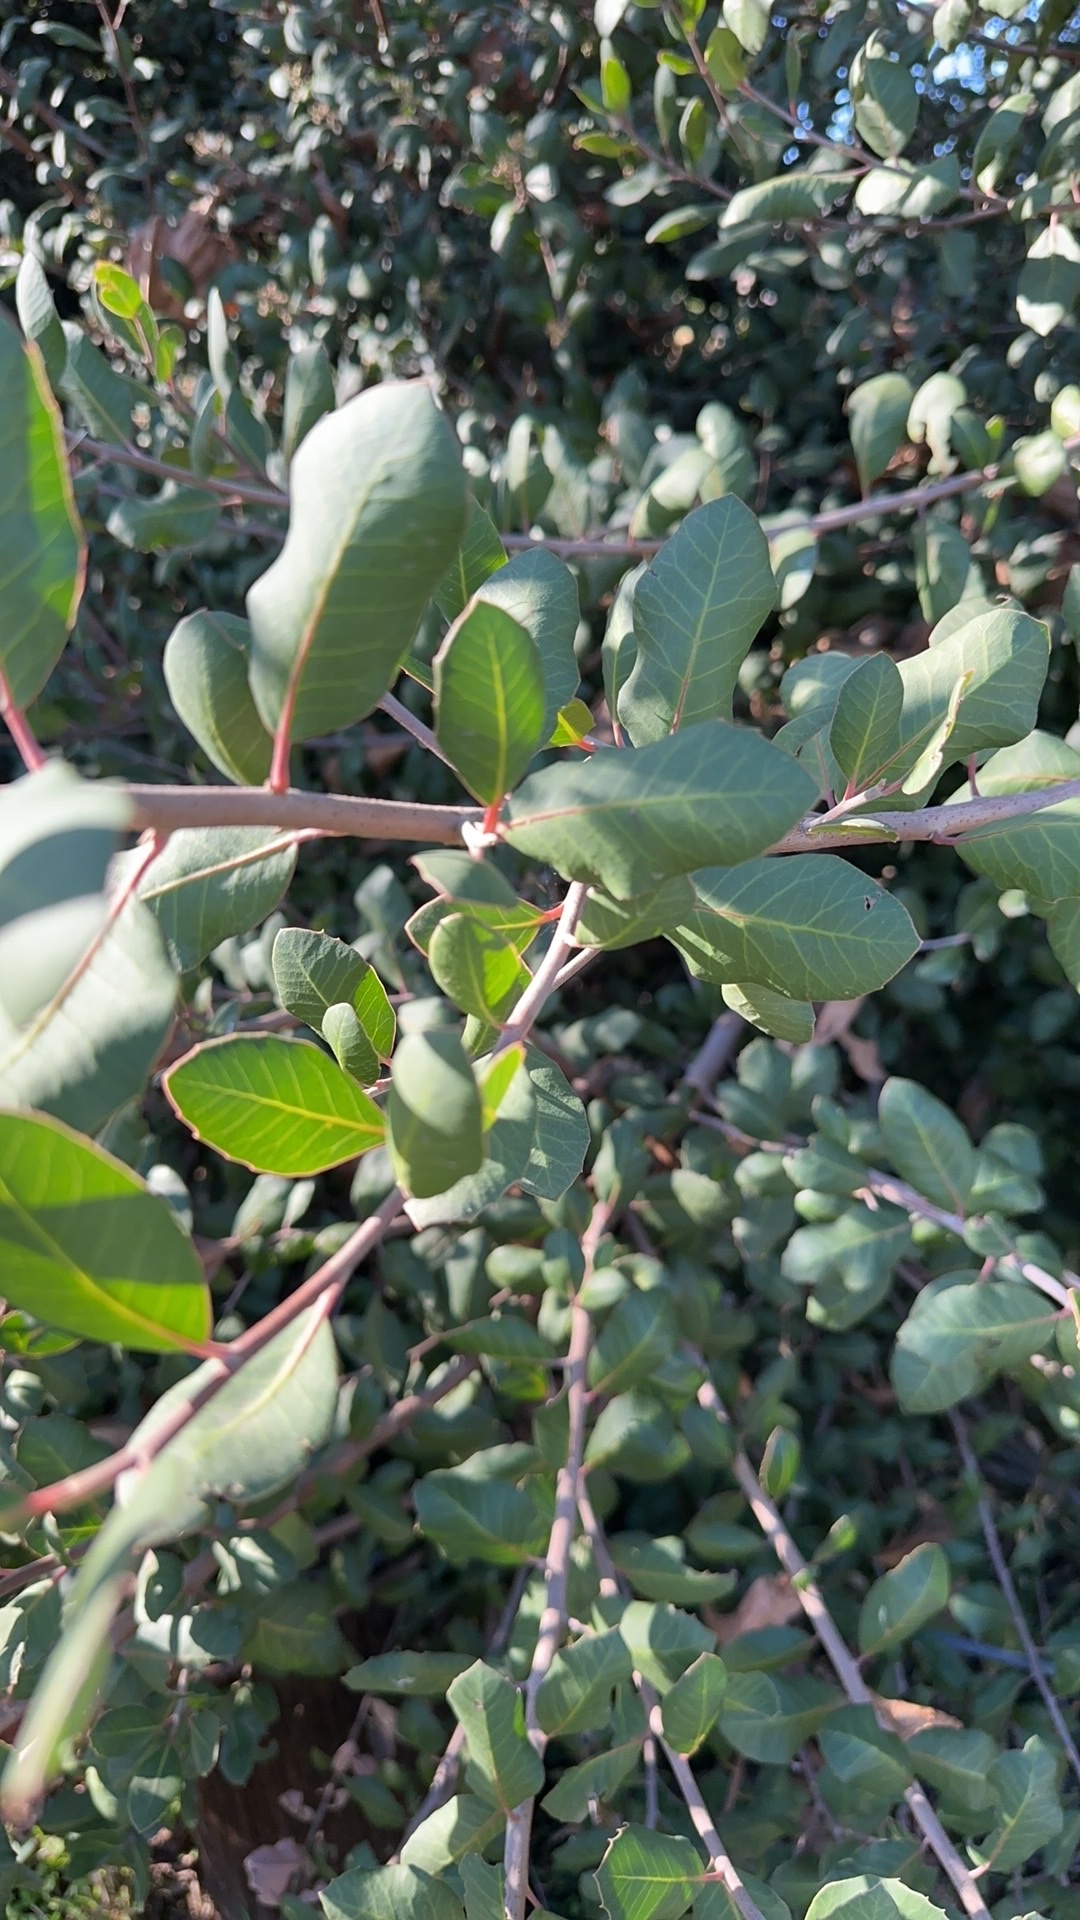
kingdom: Plantae
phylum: Tracheophyta
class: Magnoliopsida
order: Sapindales
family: Anacardiaceae
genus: Rhus
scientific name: Rhus integrifolia
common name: Lemonade sumac
